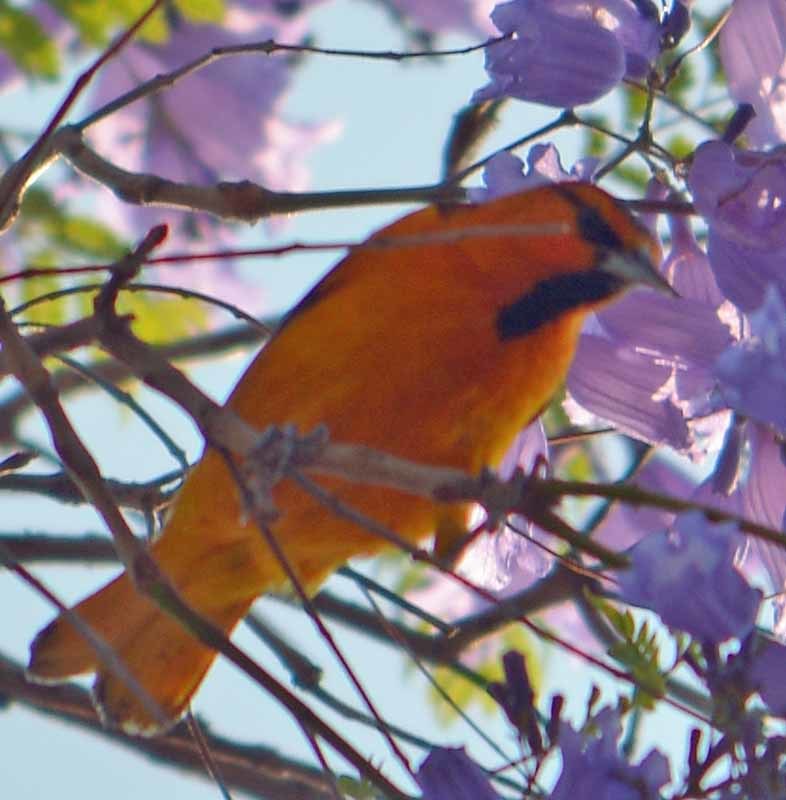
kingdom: Animalia
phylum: Chordata
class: Aves
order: Passeriformes
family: Icteridae
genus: Icterus
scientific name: Icterus bullockii
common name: Bullock's oriole
